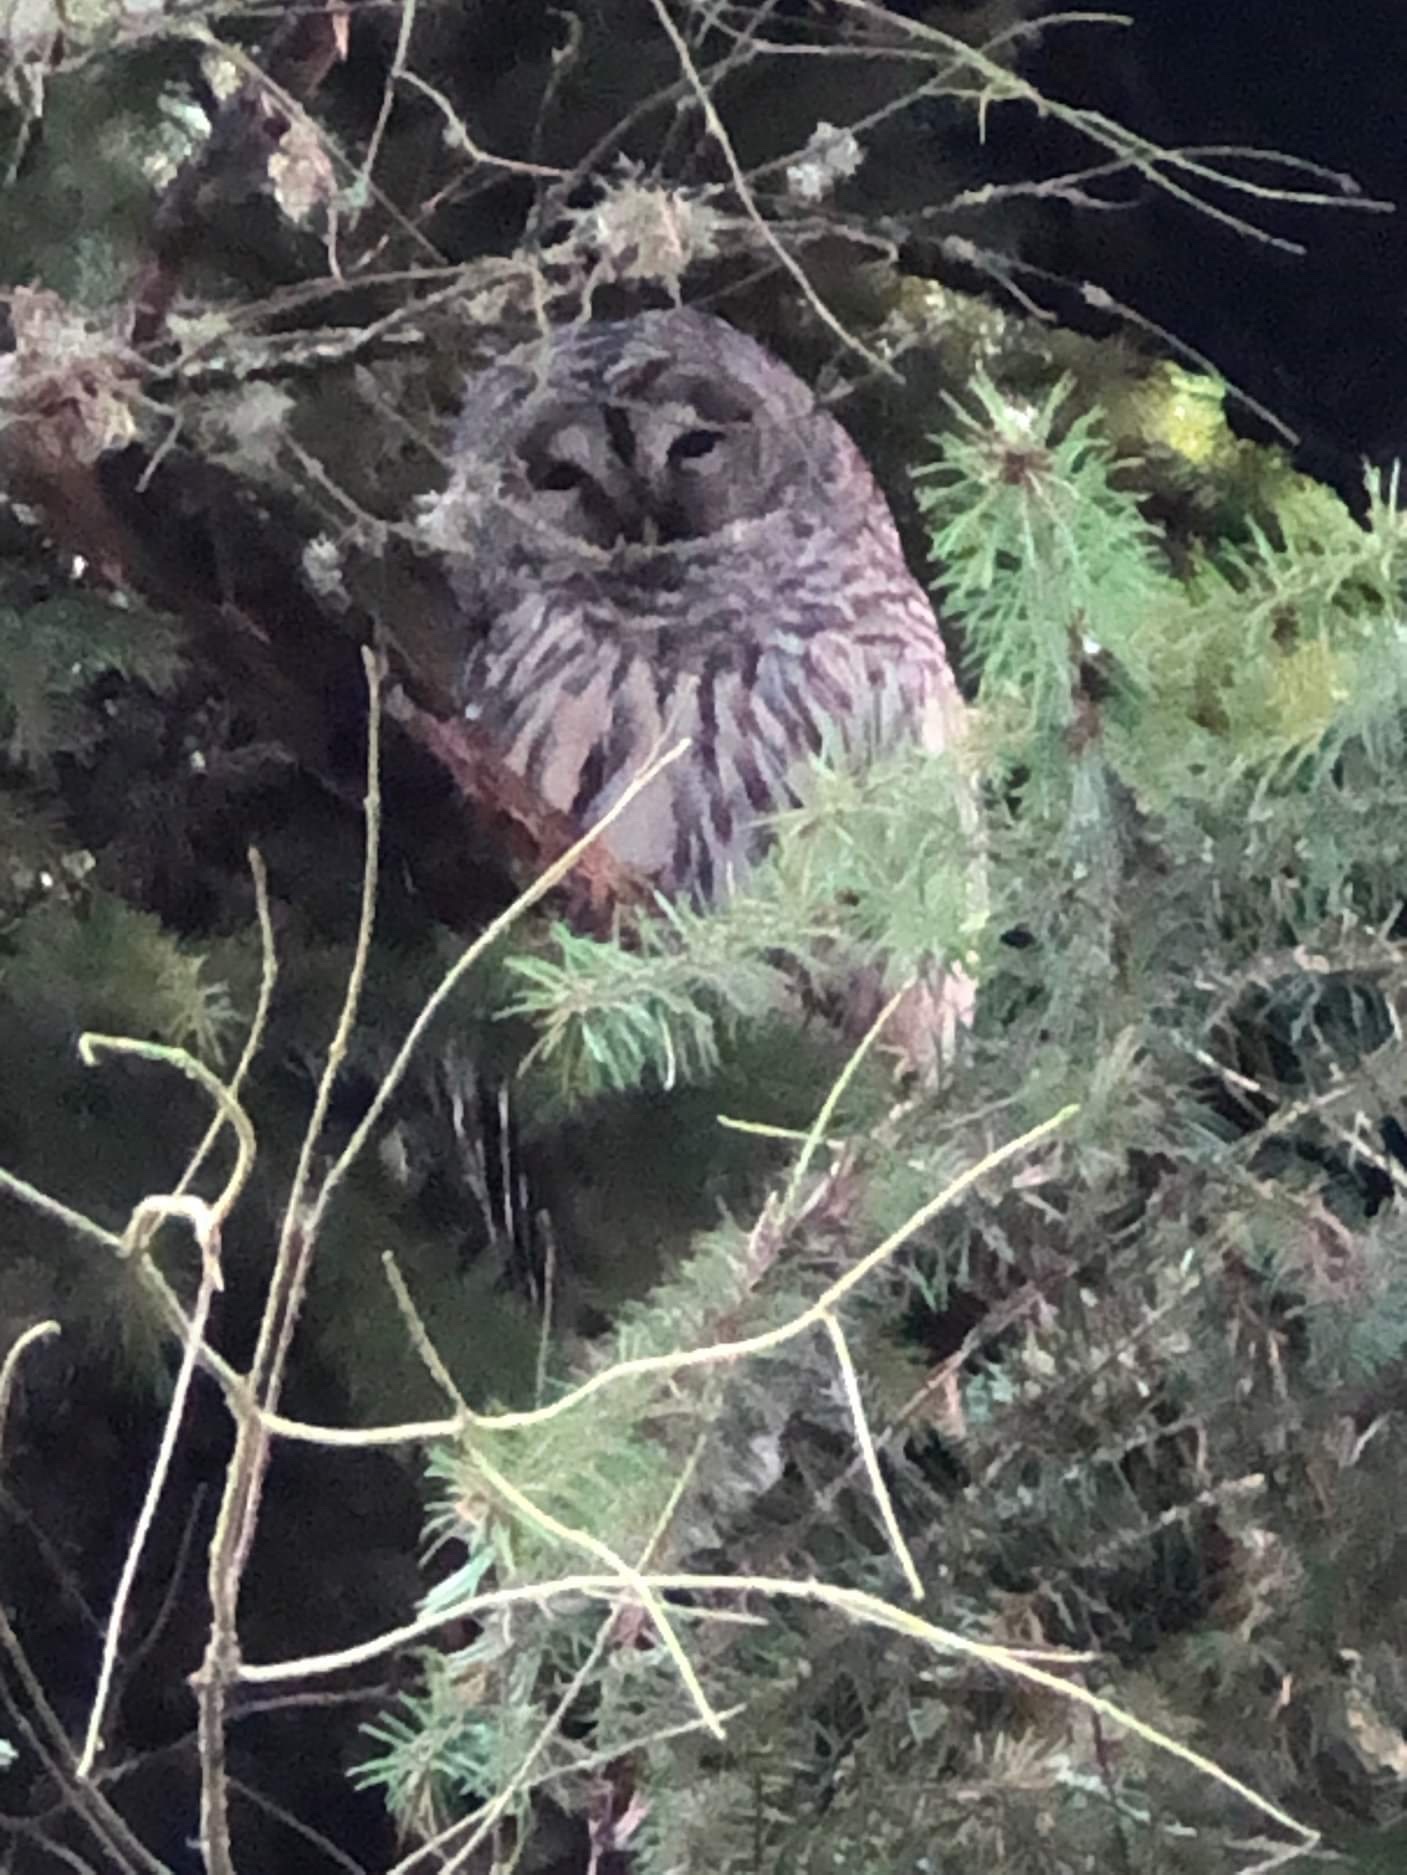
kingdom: Animalia
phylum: Chordata
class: Aves
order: Strigiformes
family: Strigidae
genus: Strix
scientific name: Strix varia
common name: Barred owl
